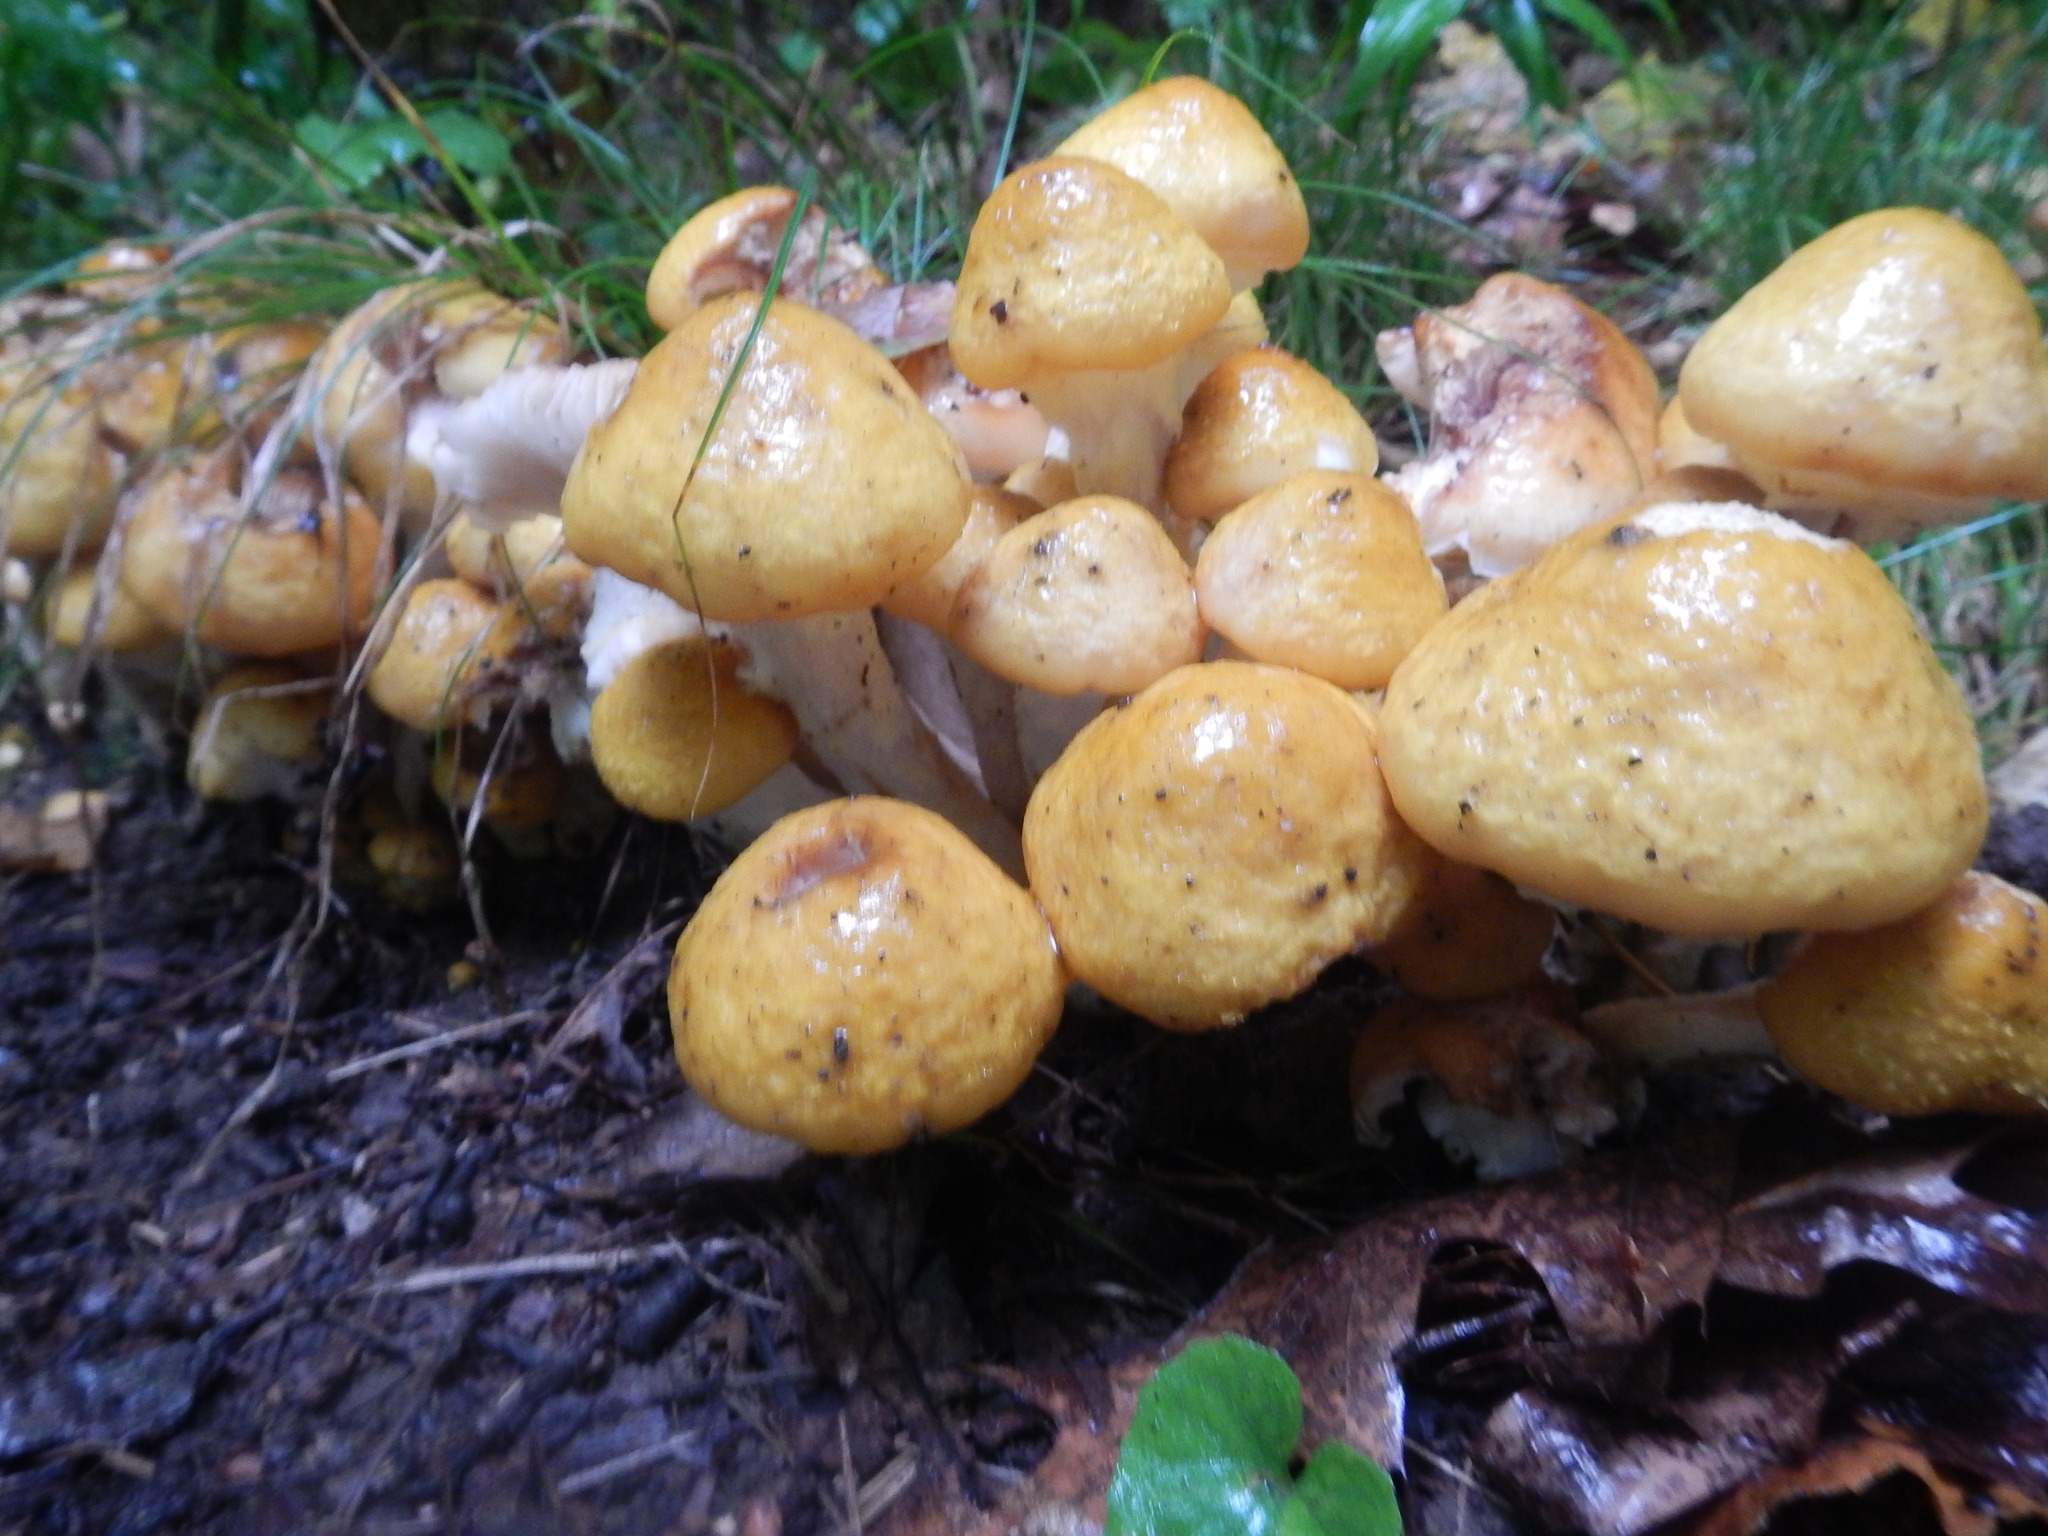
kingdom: Fungi
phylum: Basidiomycota
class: Agaricomycetes
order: Agaricales
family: Physalacriaceae
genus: Armillaria
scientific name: Armillaria mellea
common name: Honey fungus
